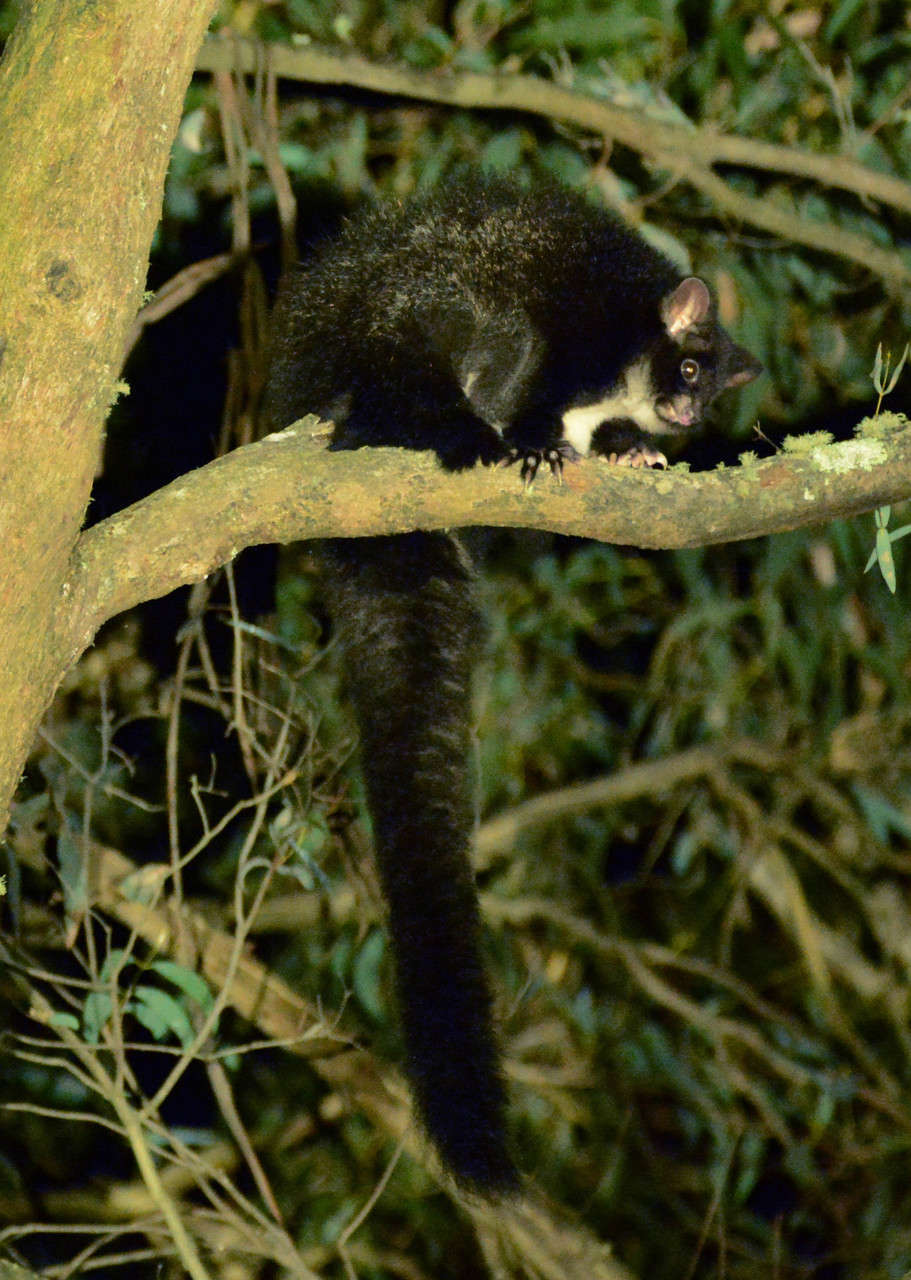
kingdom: Animalia
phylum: Chordata
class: Mammalia
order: Diprotodontia
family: Pseudocheiridae
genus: Petauroides
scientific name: Petauroides volans
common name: Greater glider
